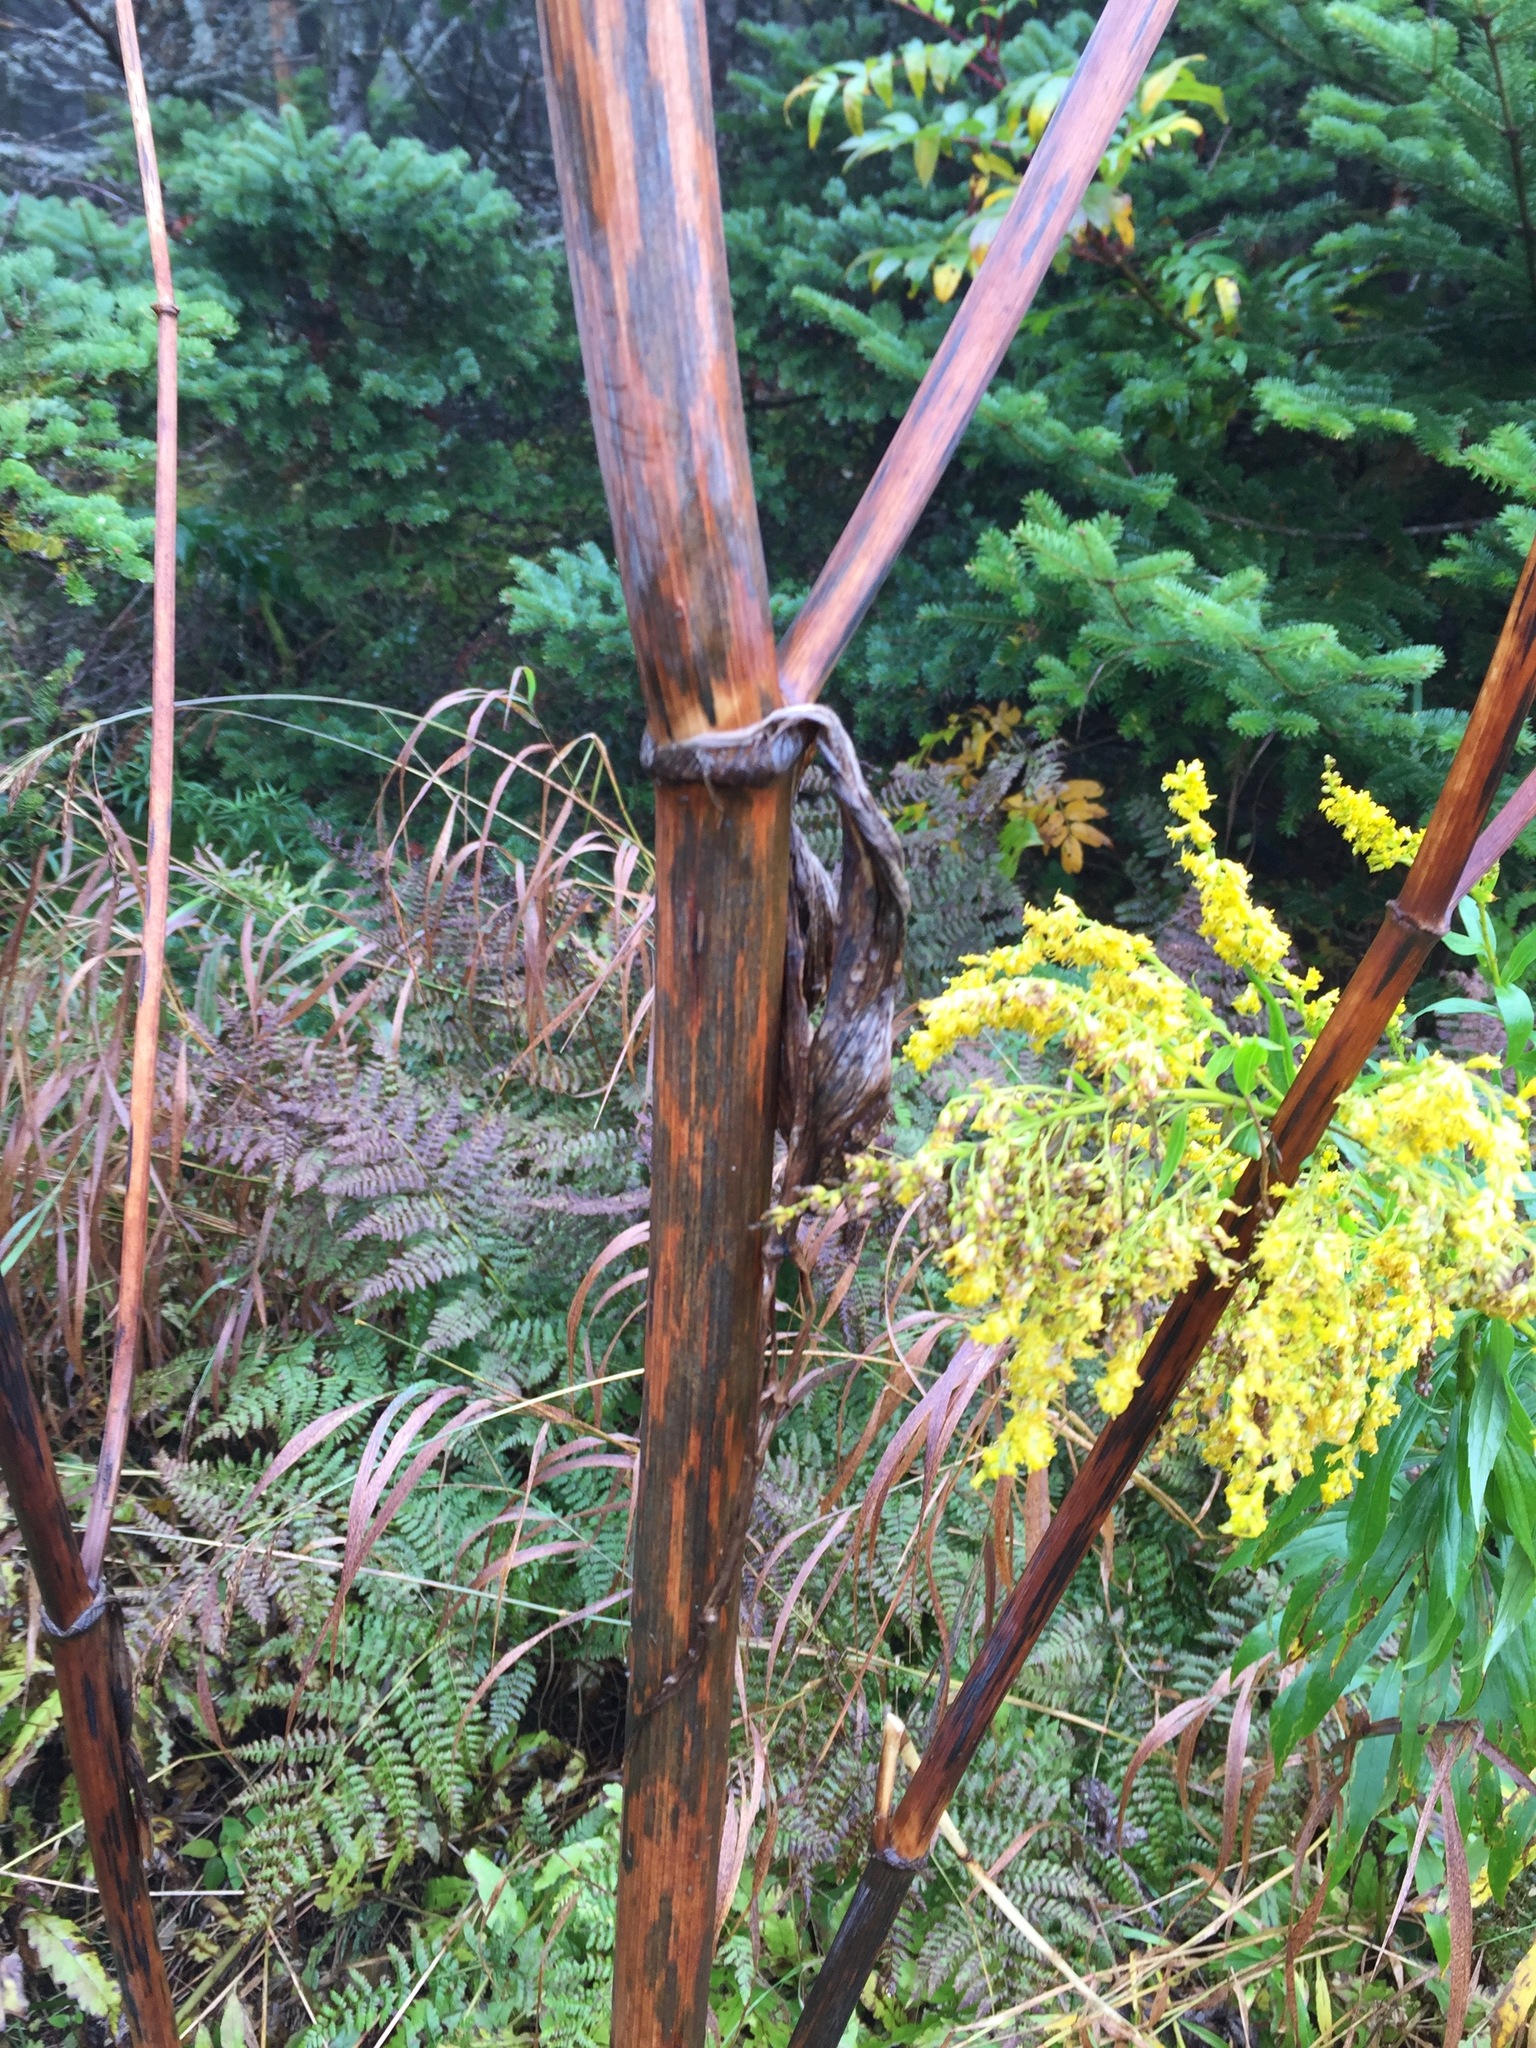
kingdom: Plantae
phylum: Tracheophyta
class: Magnoliopsida
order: Apiales
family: Apiaceae
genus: Angelica
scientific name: Angelica atropurpurea
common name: Great angelica
